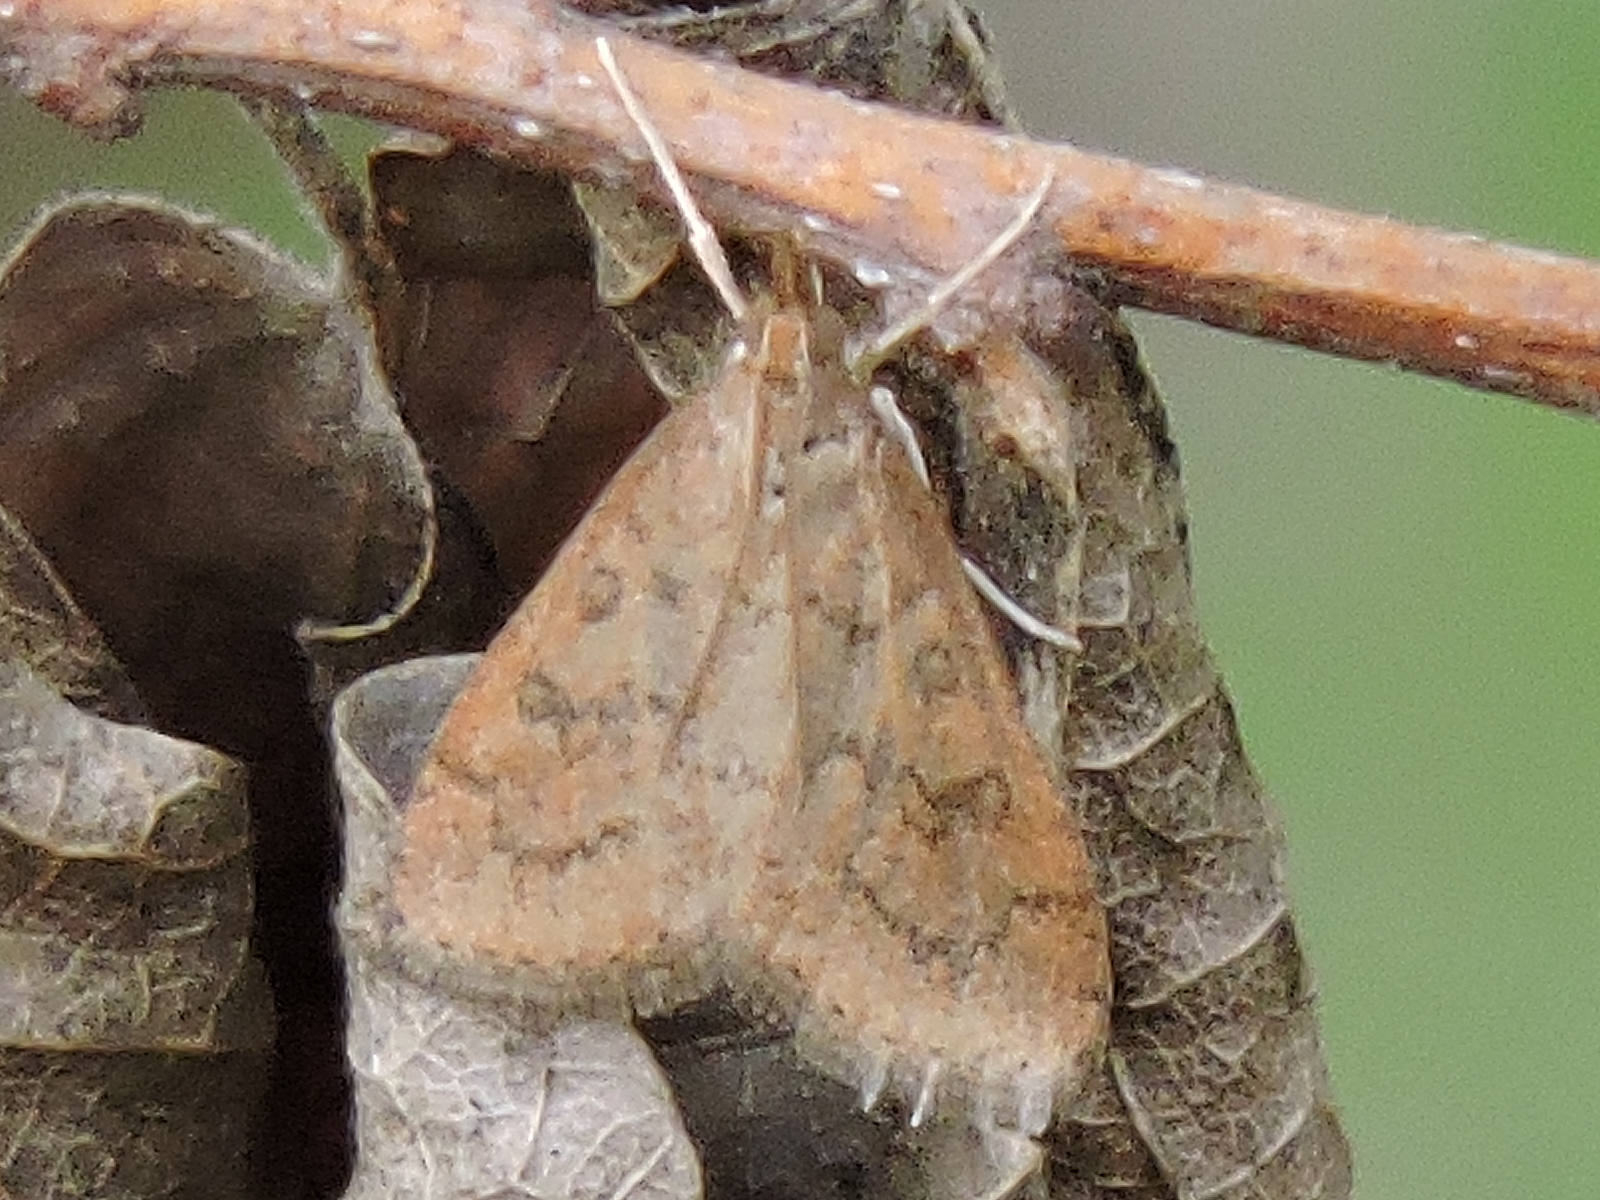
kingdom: Animalia
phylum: Arthropoda
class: Insecta
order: Lepidoptera
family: Crambidae
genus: Udea
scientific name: Udea rubigalis
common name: Celery leaftier moth
